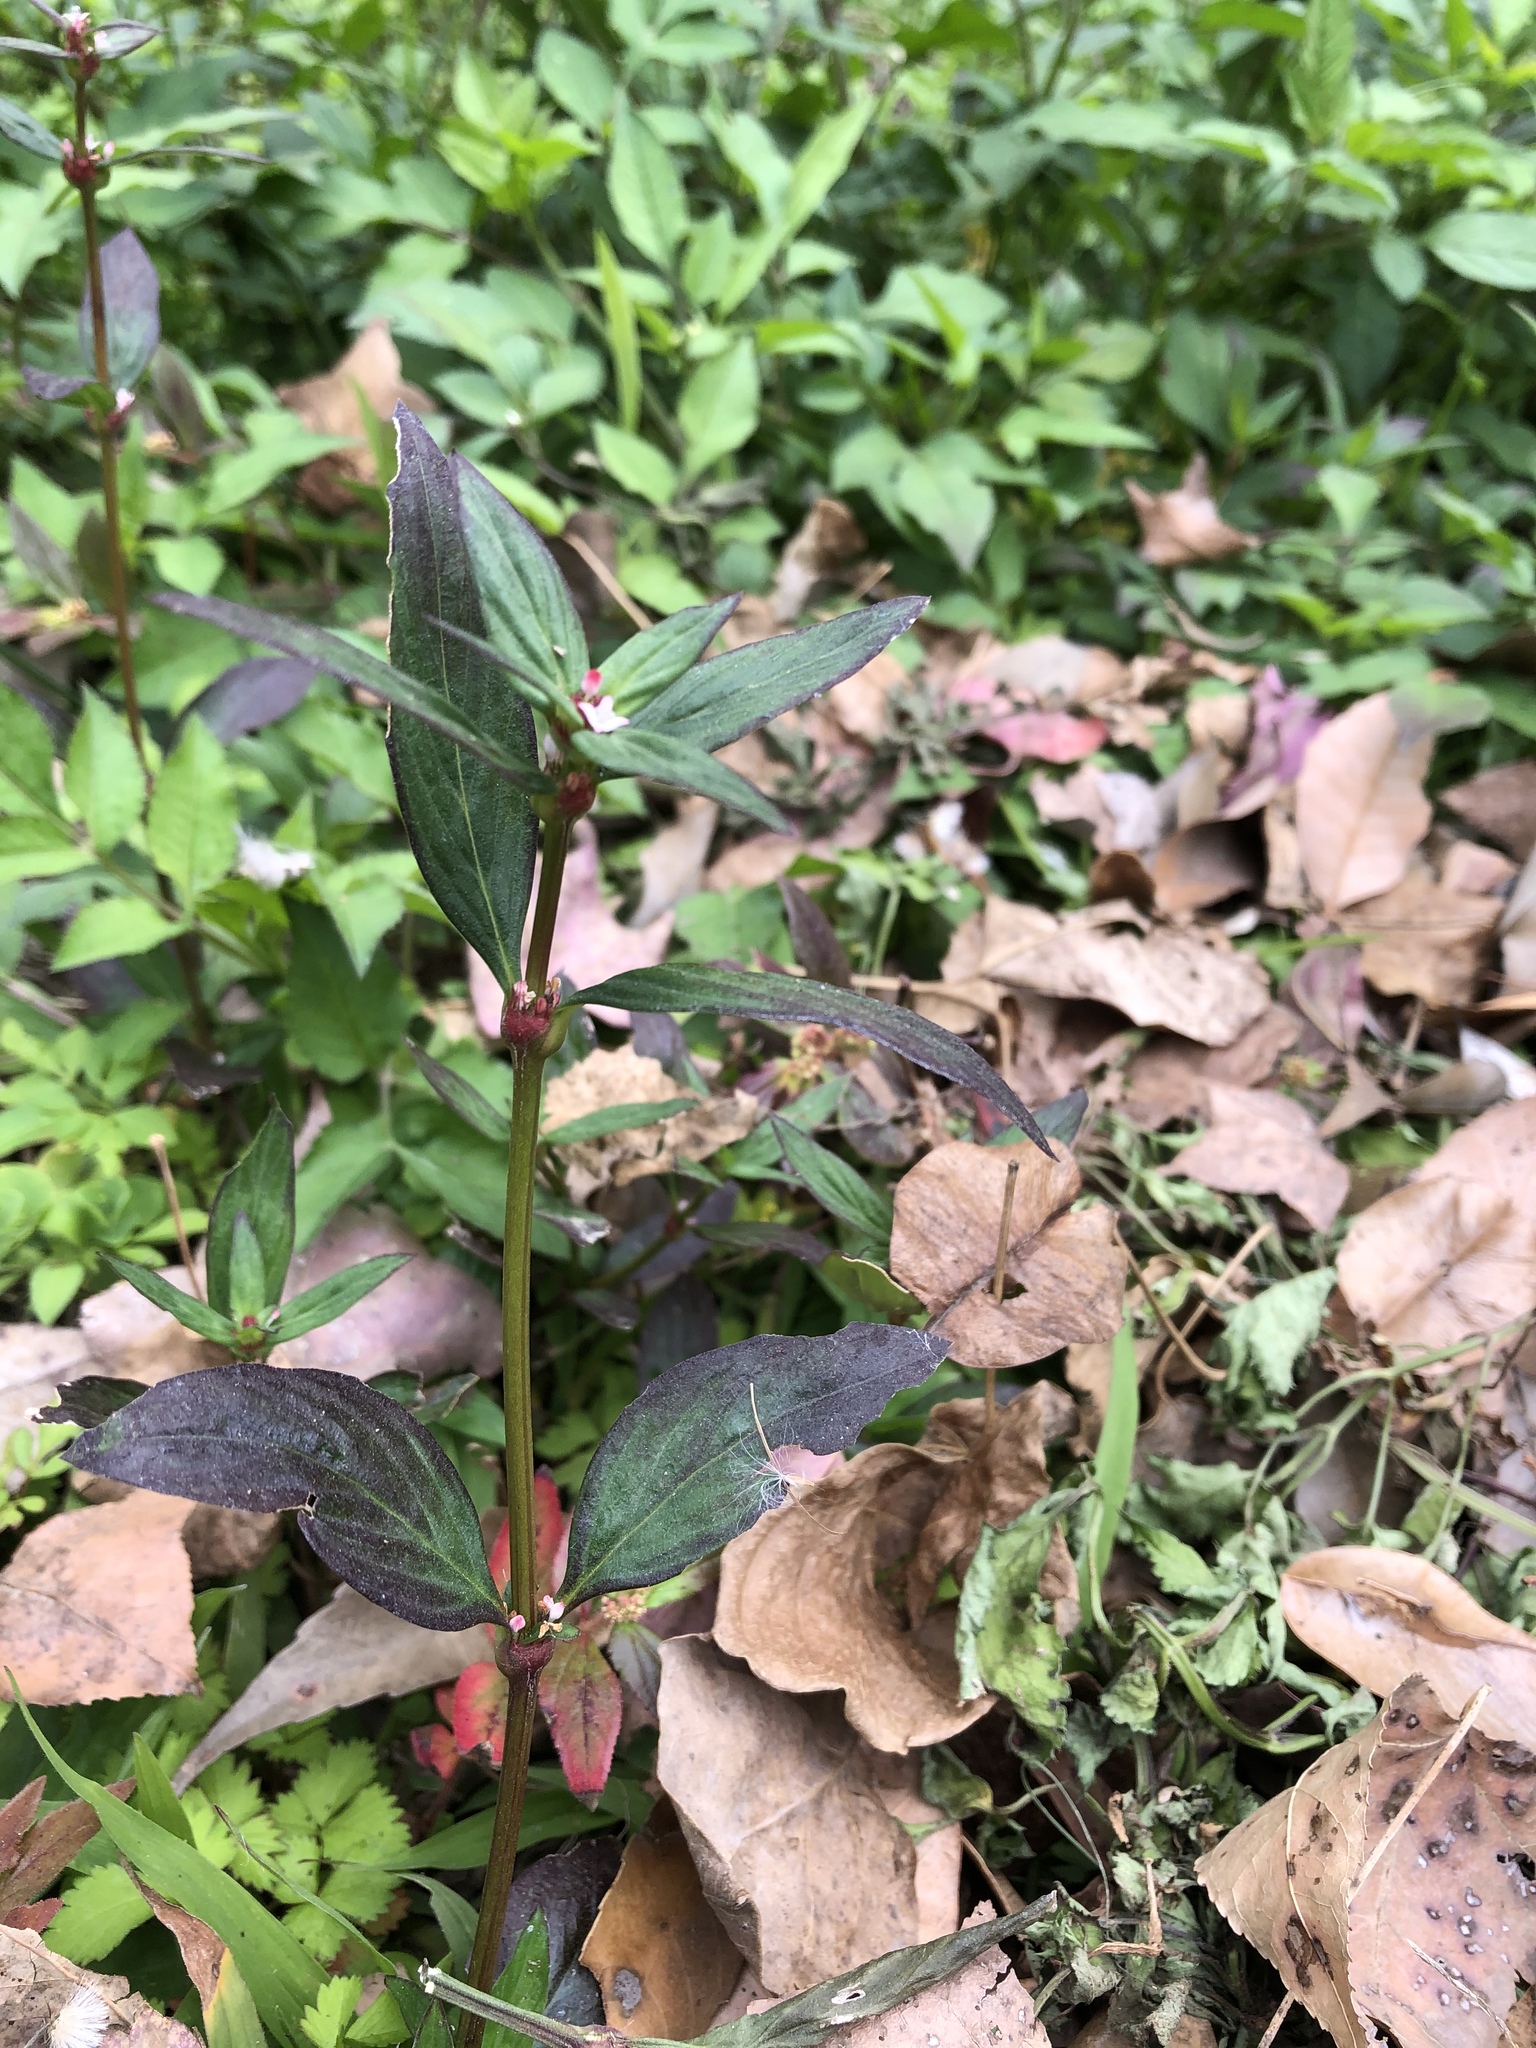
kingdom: Plantae
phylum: Tracheophyta
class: Magnoliopsida
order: Gentianales
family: Rubiaceae
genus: Spermacoce
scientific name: Spermacoce remota
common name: Woodland false buttonweed
